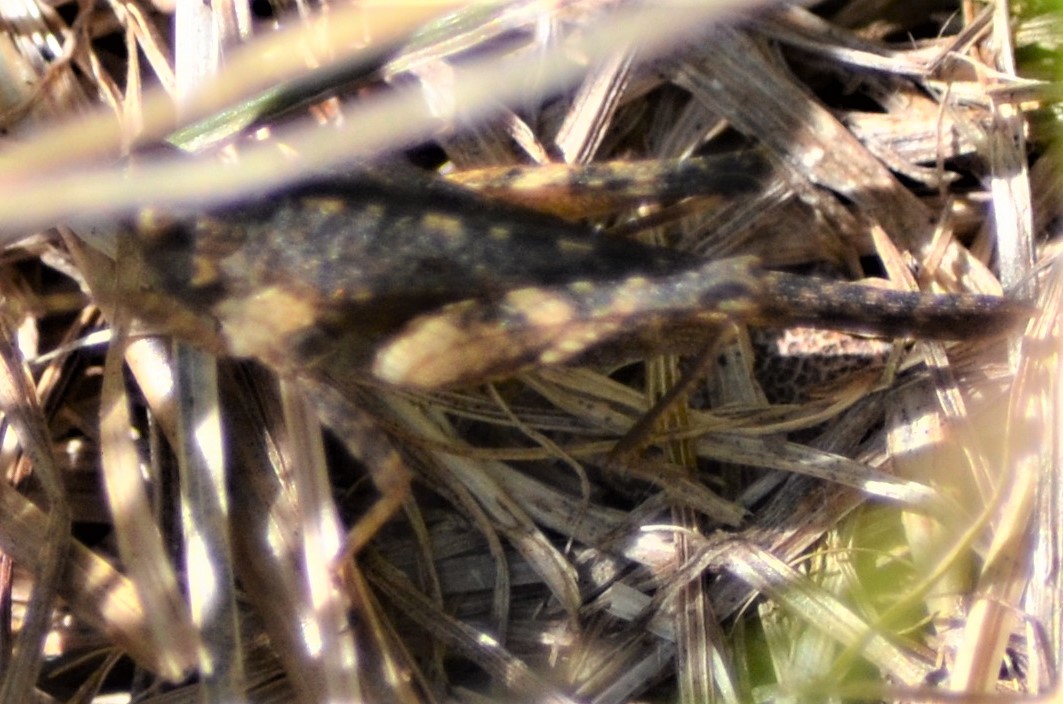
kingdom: Animalia
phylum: Arthropoda
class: Insecta
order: Orthoptera
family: Tetrigidae
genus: Tetrix
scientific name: Tetrix subulata
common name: Slender ground-hopper
